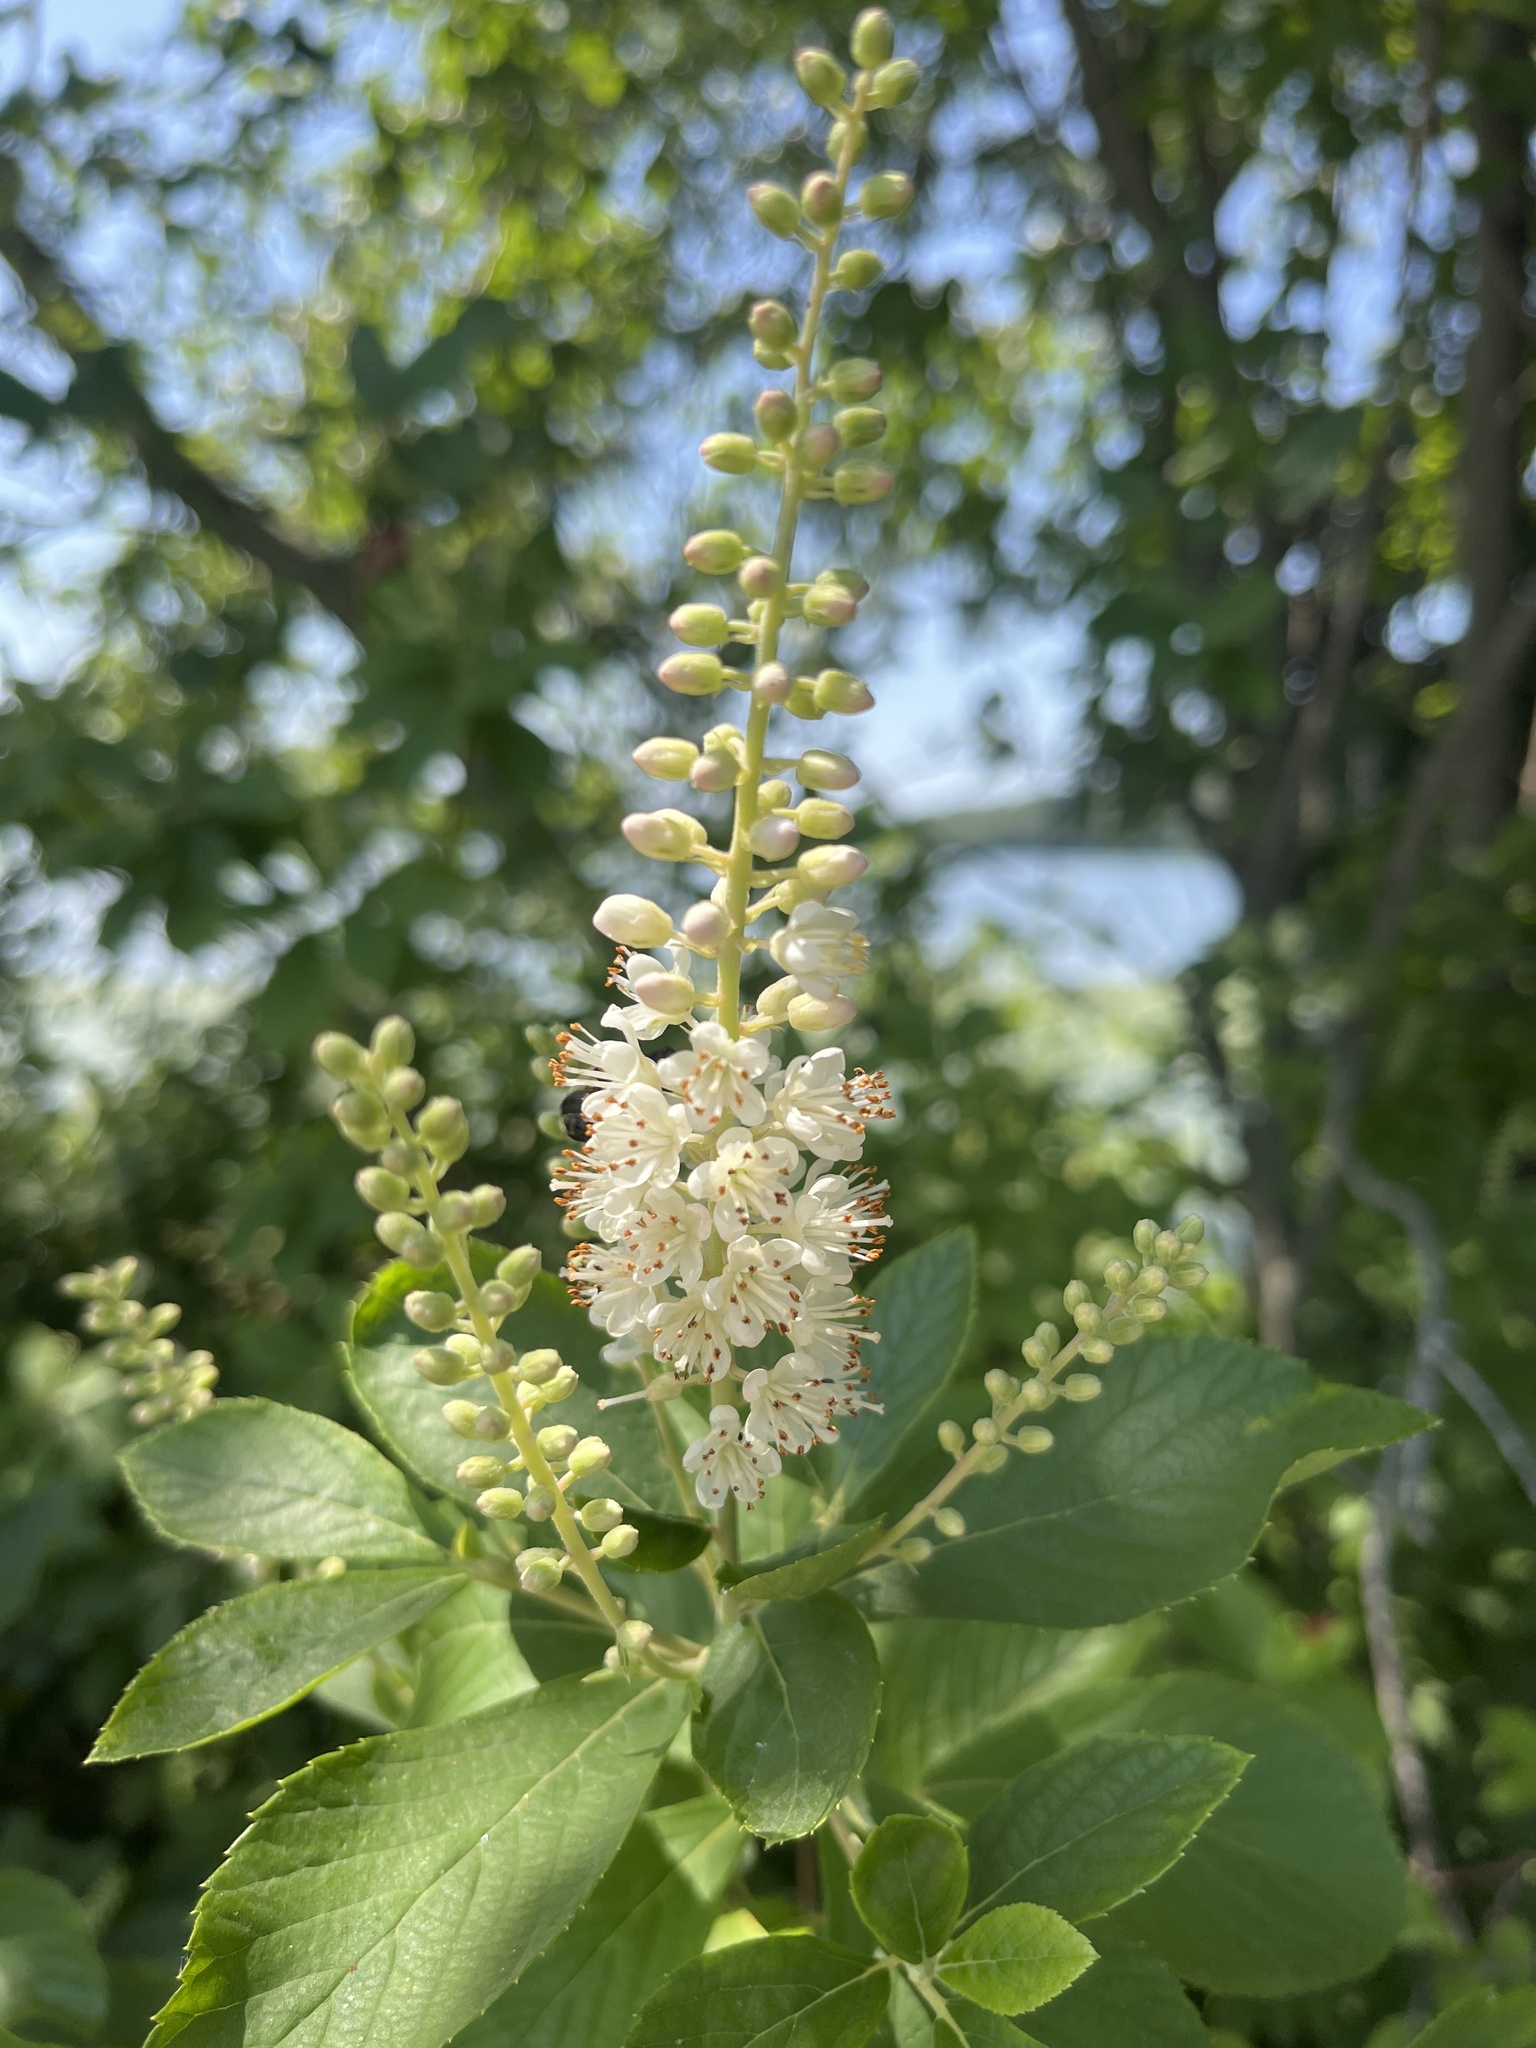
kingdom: Plantae
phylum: Tracheophyta
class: Magnoliopsida
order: Ericales
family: Clethraceae
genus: Clethra
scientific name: Clethra alnifolia
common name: Sweet pepperbush
